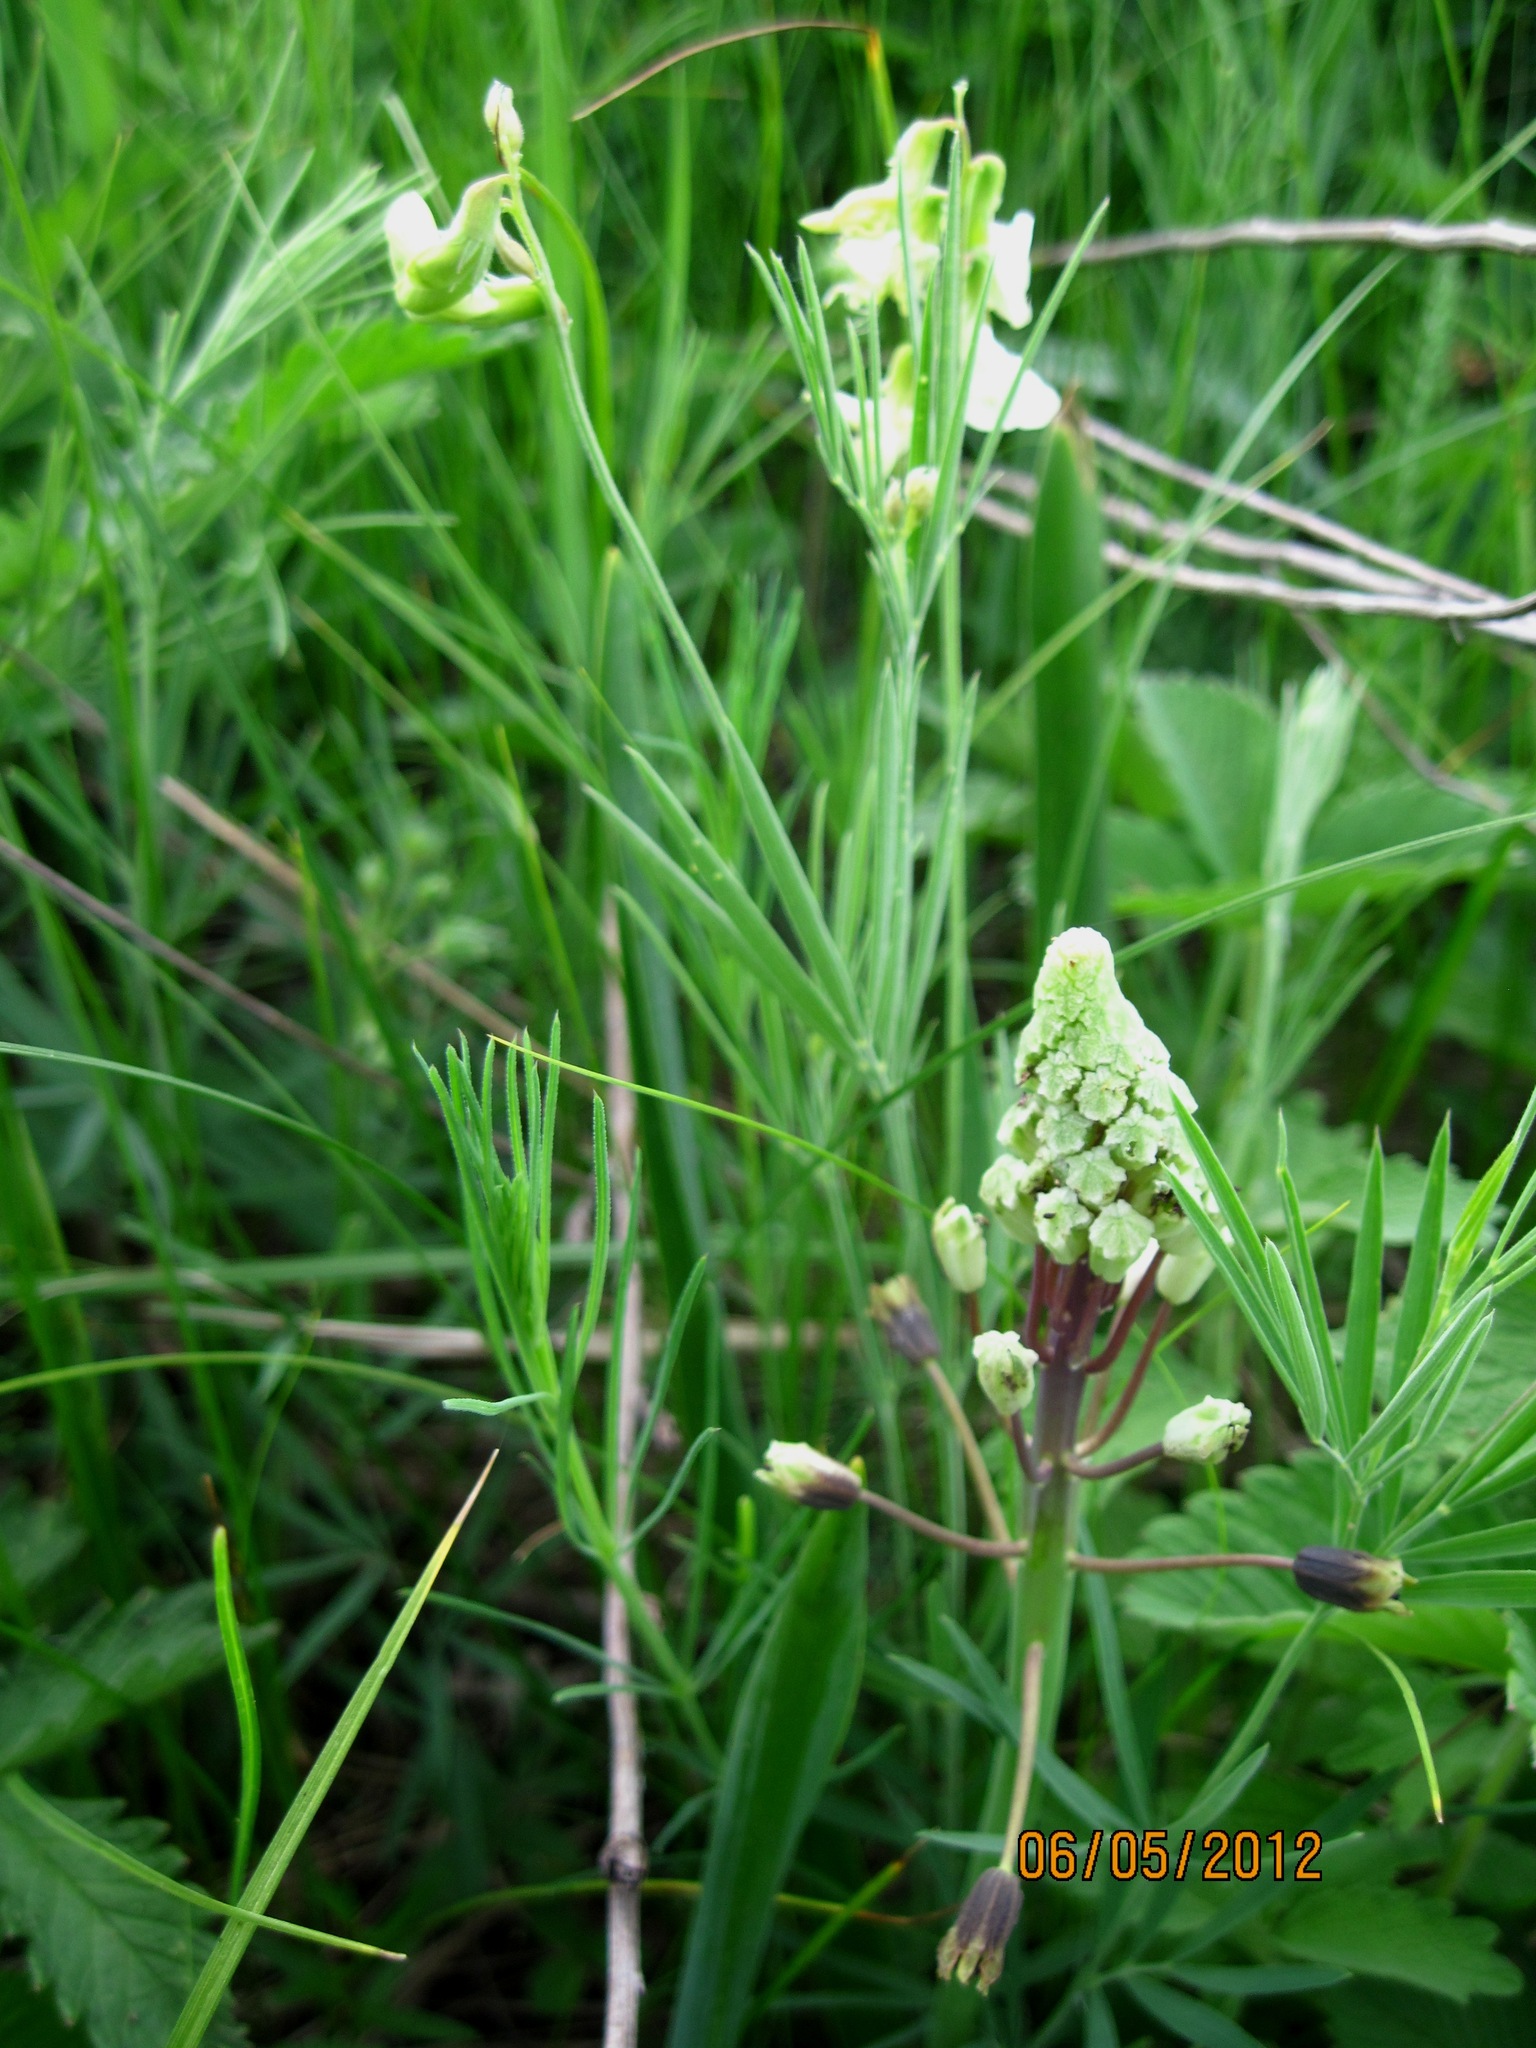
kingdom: Plantae
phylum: Tracheophyta
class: Liliopsida
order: Asparagales
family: Asparagaceae
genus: Bellevalia
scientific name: Bellevalia speciosa
